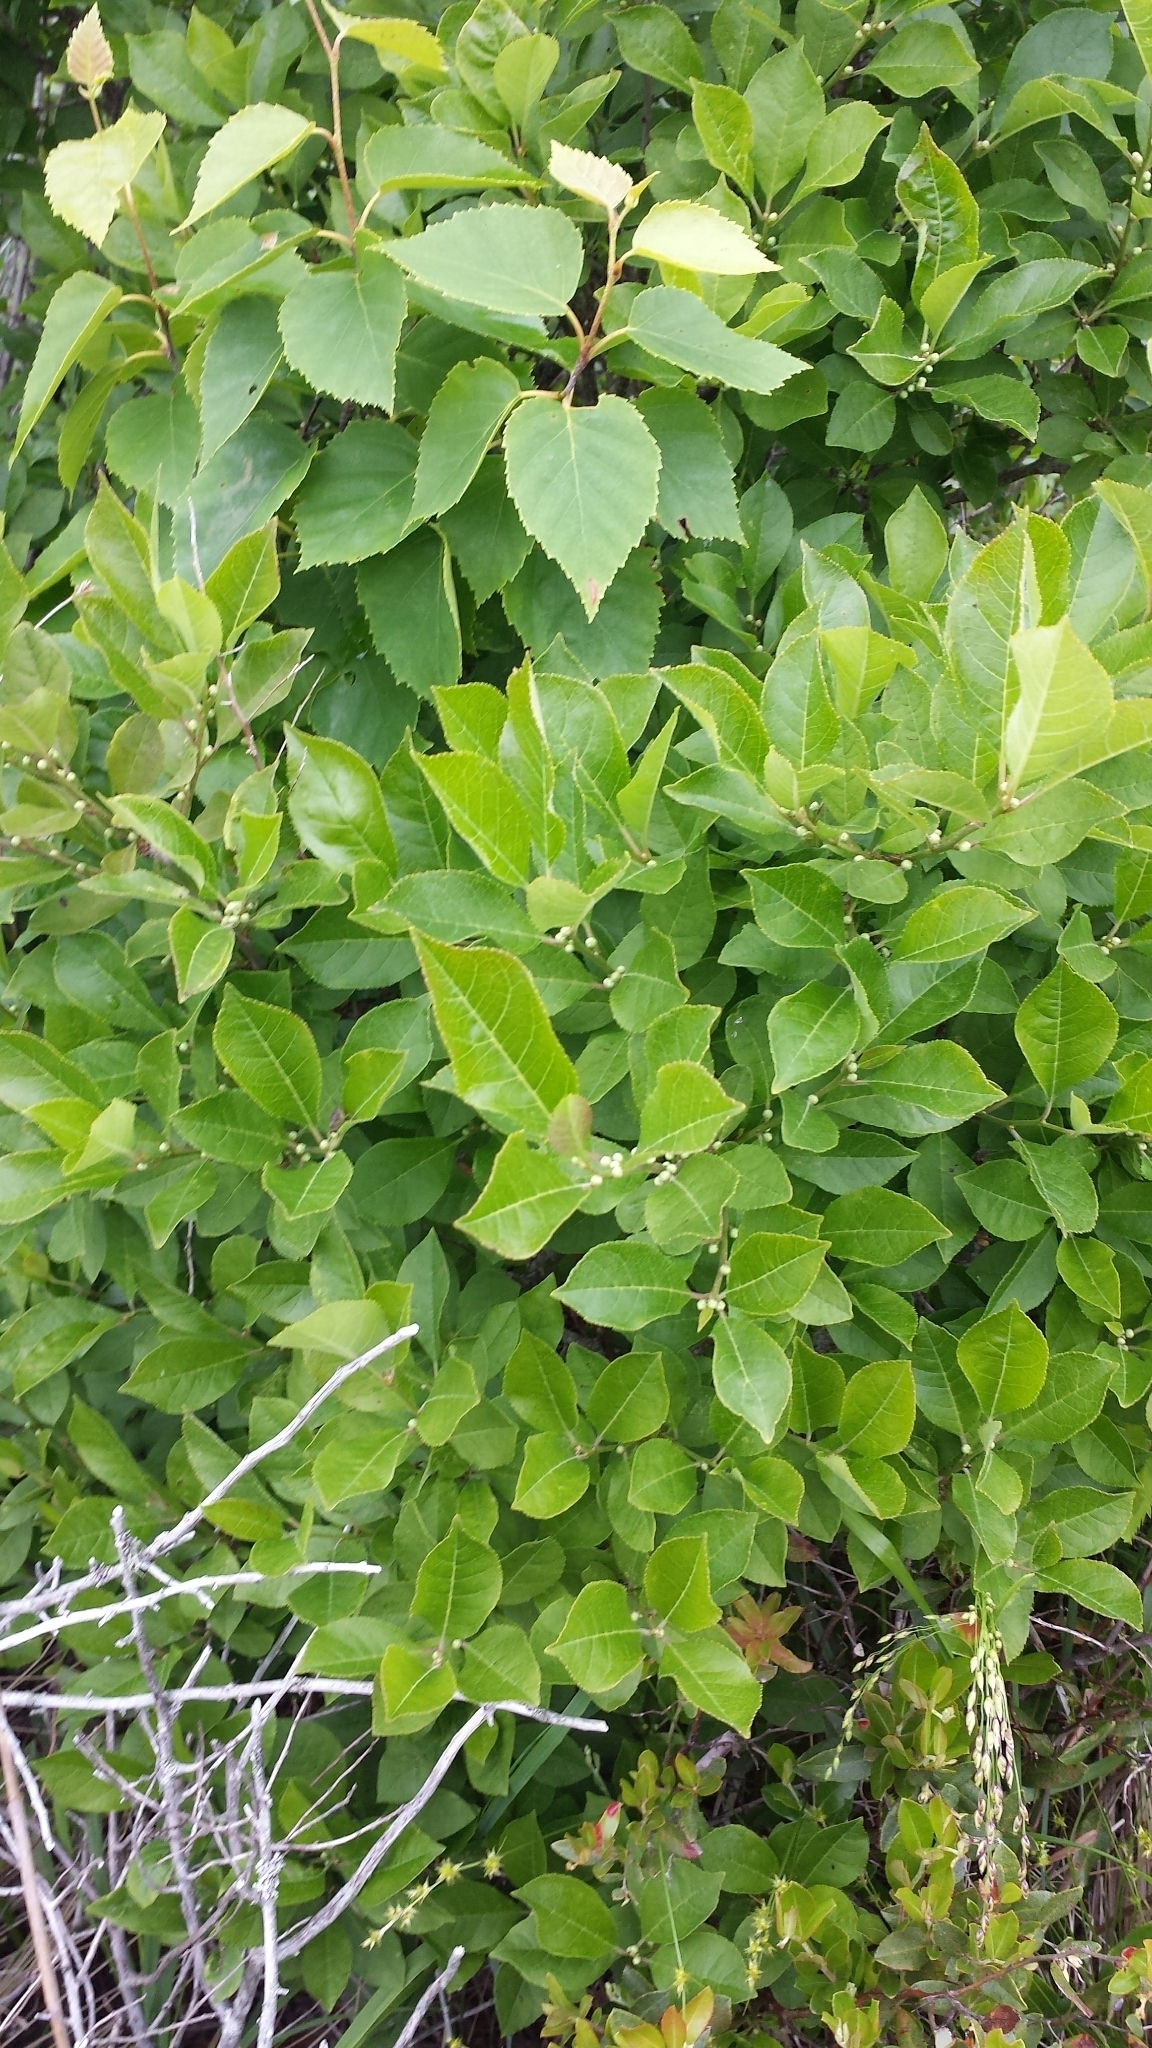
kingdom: Plantae
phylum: Tracheophyta
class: Magnoliopsida
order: Aquifoliales
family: Aquifoliaceae
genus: Ilex
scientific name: Ilex verticillata
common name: Virginia winterberry
